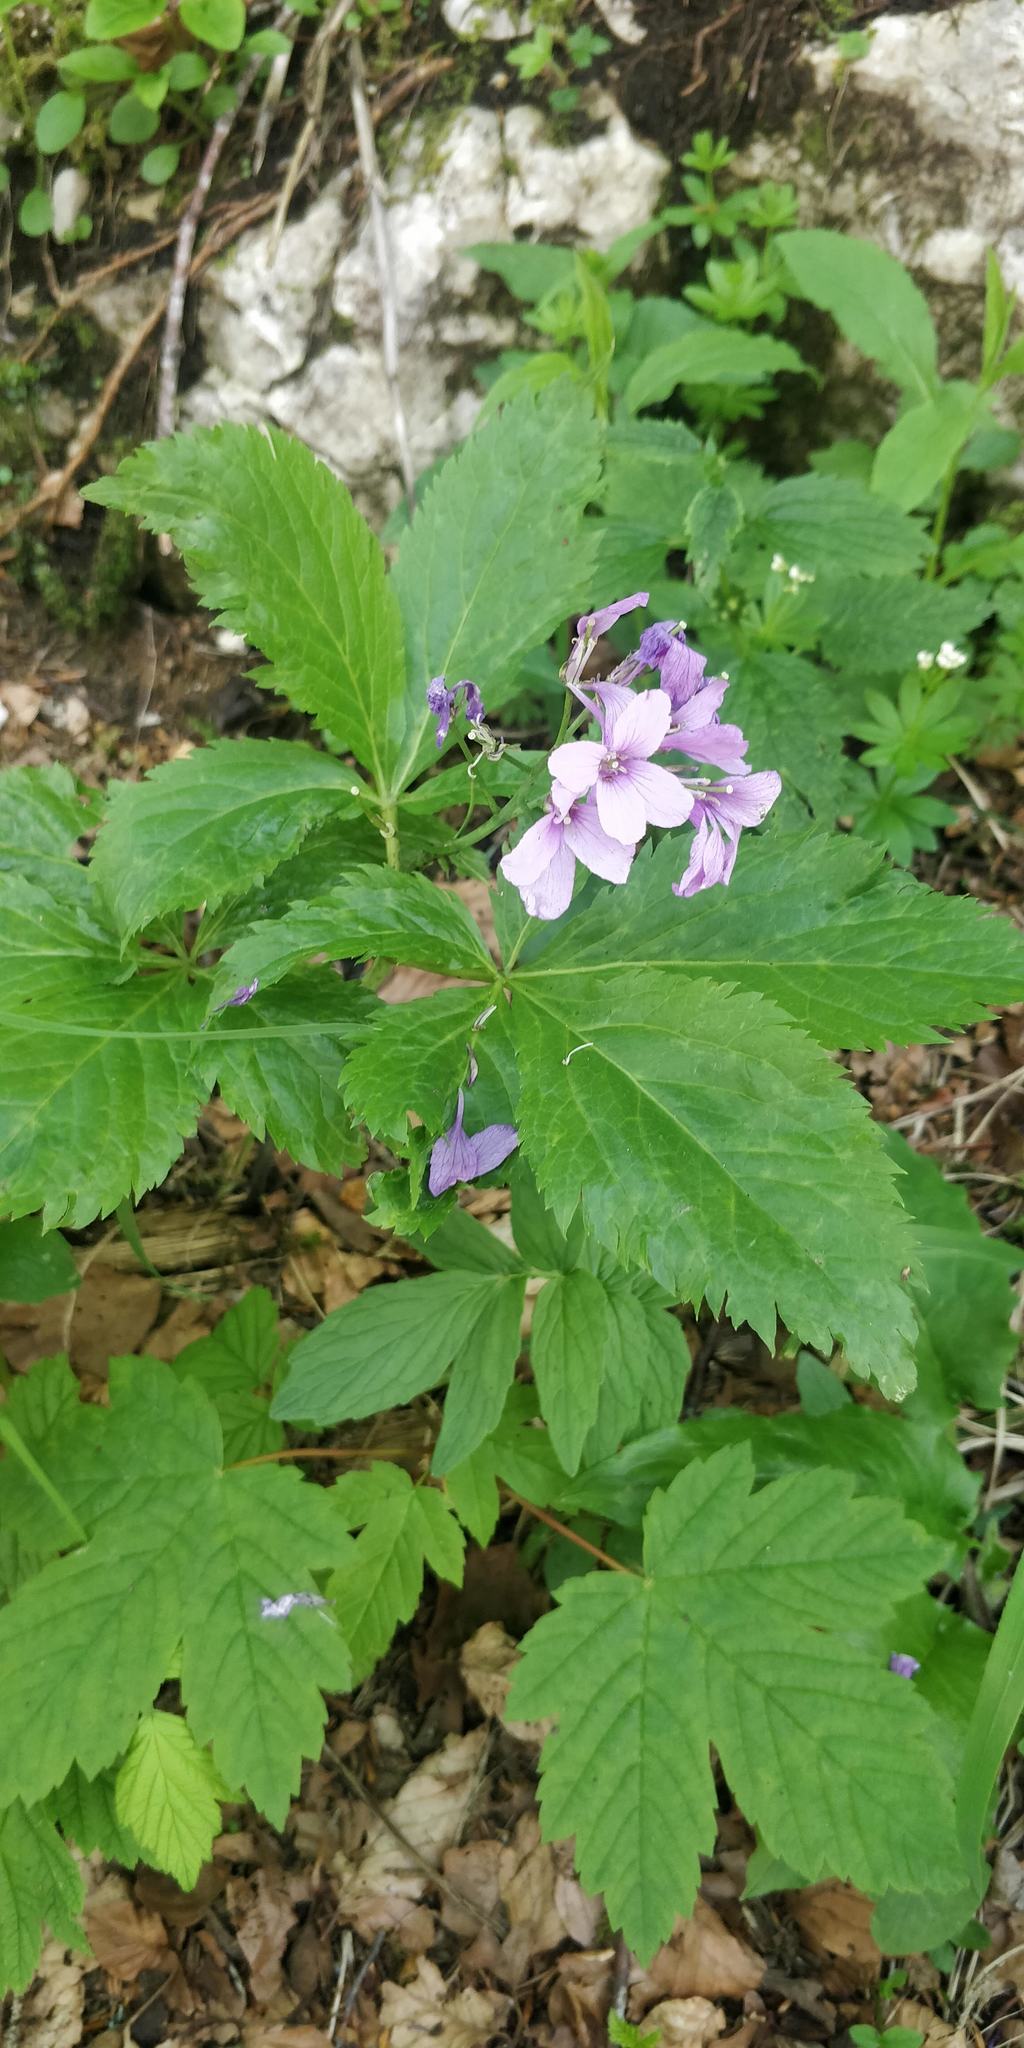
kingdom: Plantae
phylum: Tracheophyta
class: Magnoliopsida
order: Brassicales
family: Brassicaceae
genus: Cardamine
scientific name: Cardamine pentaphyllos
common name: Five-leaflet bitter-cress
